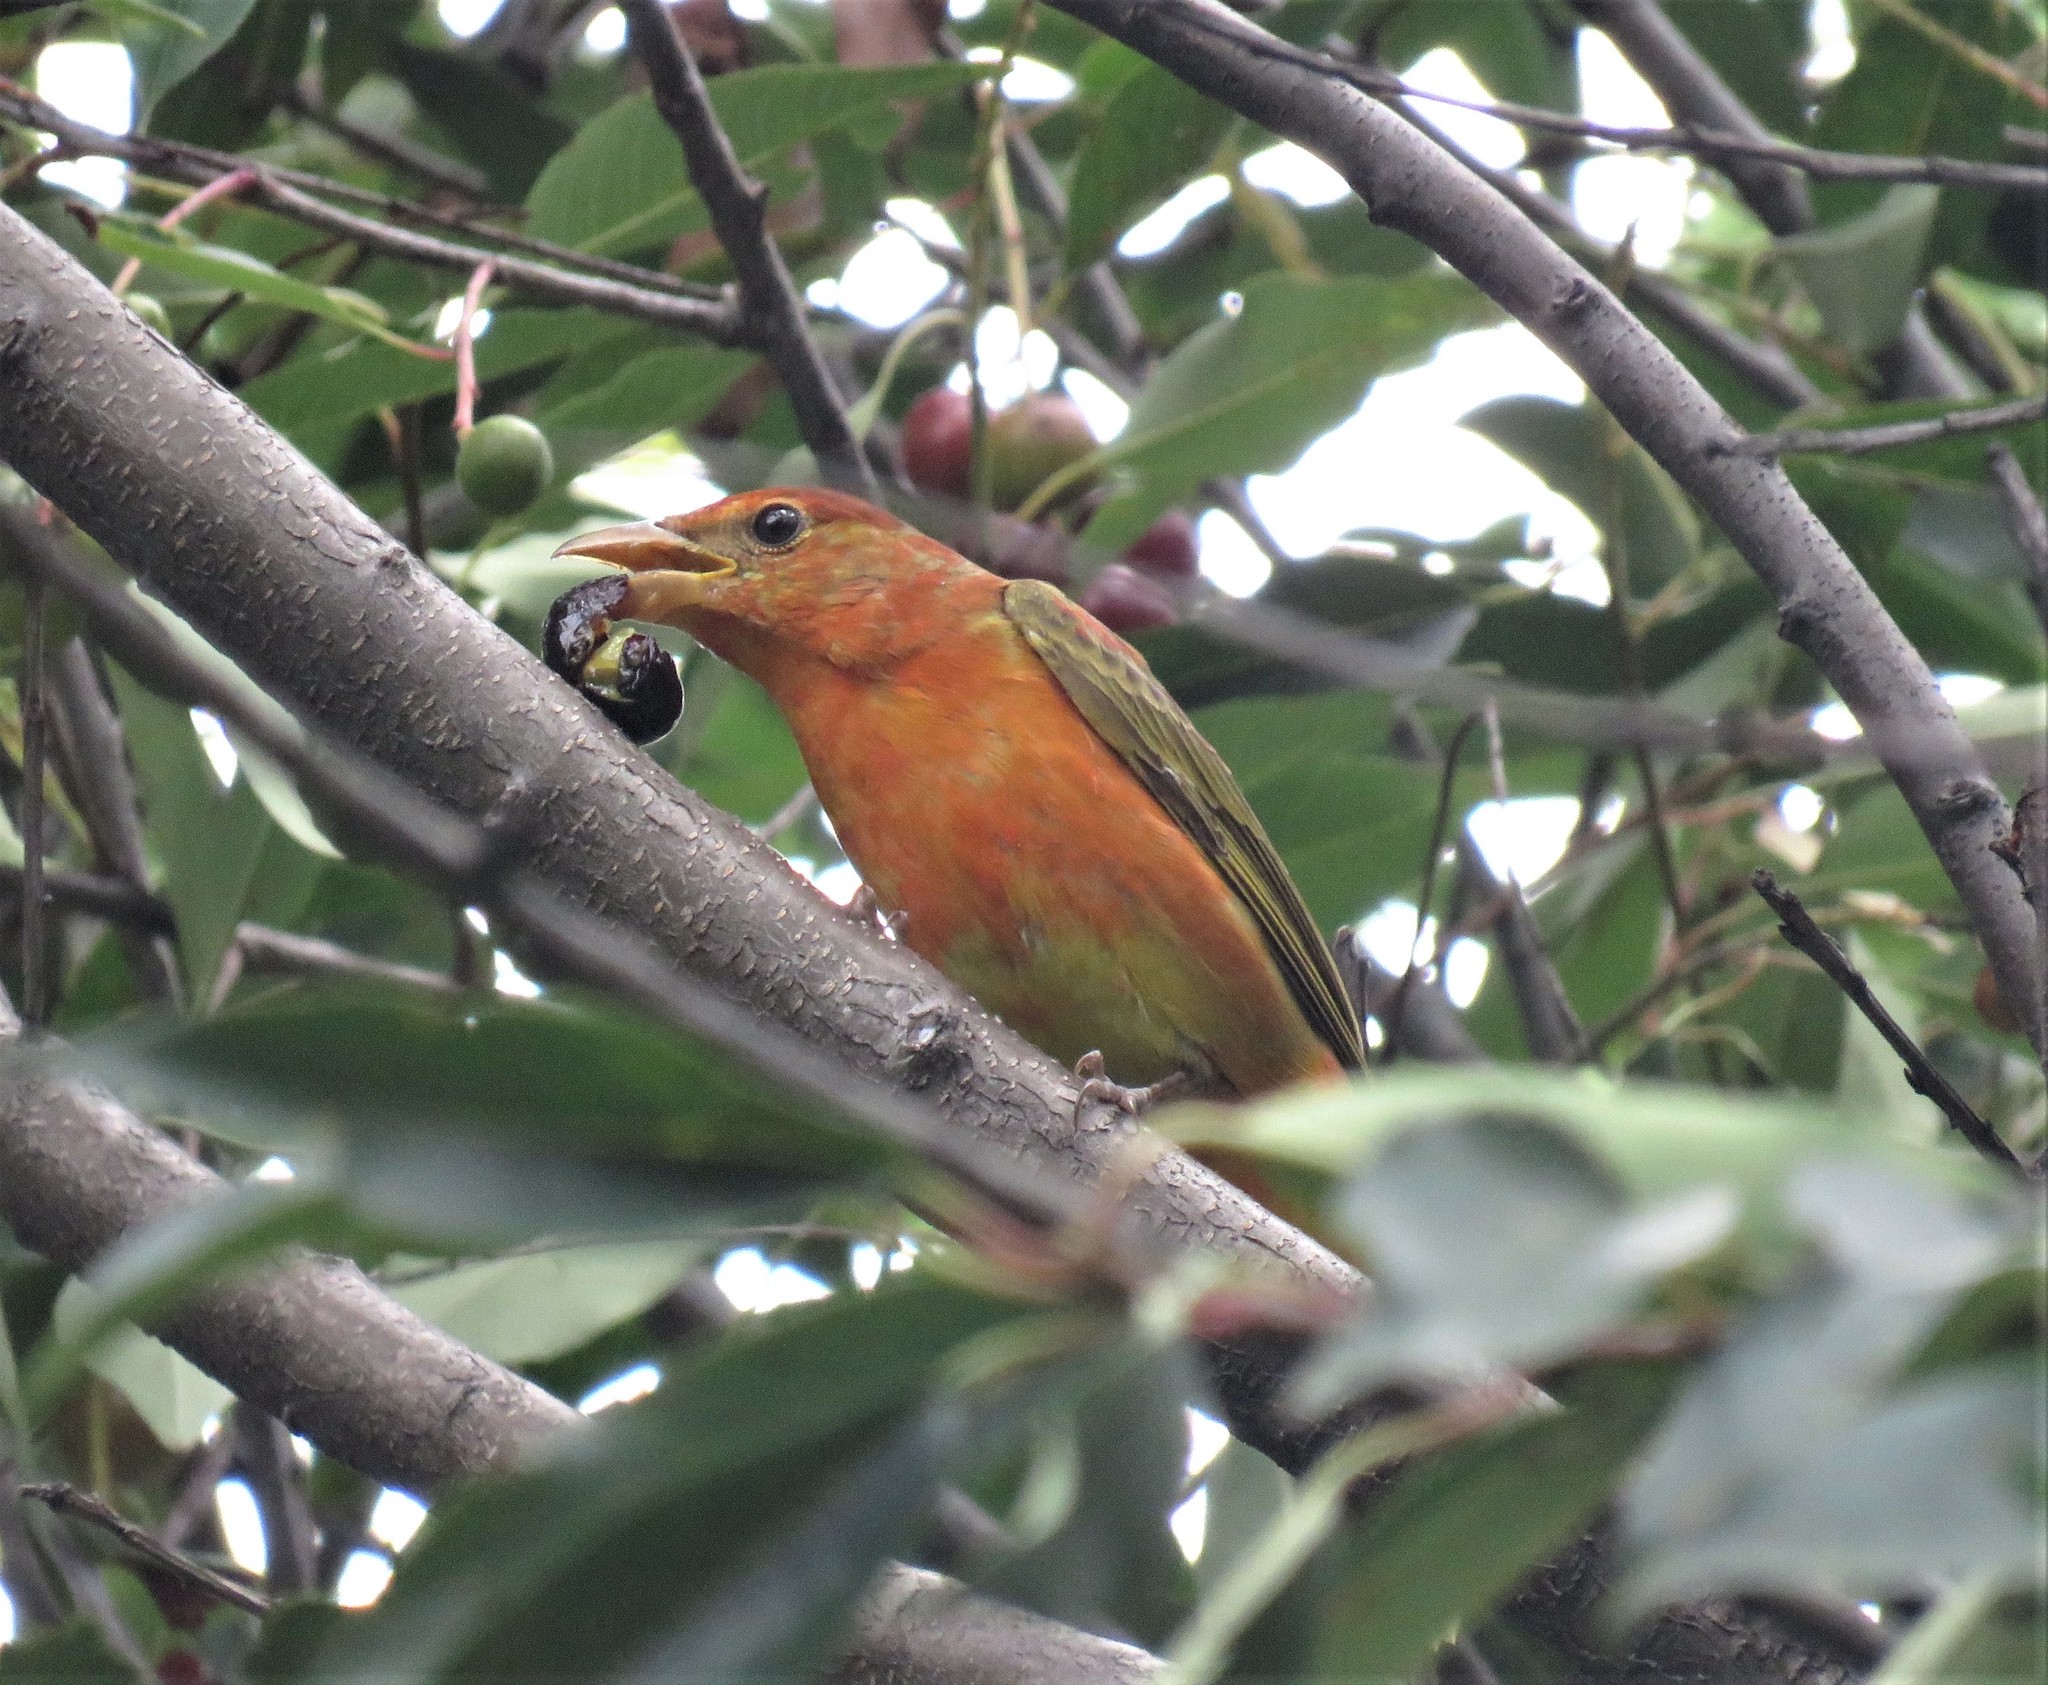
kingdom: Animalia
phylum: Chordata
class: Aves
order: Passeriformes
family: Cardinalidae
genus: Piranga
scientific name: Piranga rubra
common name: Summer tanager
